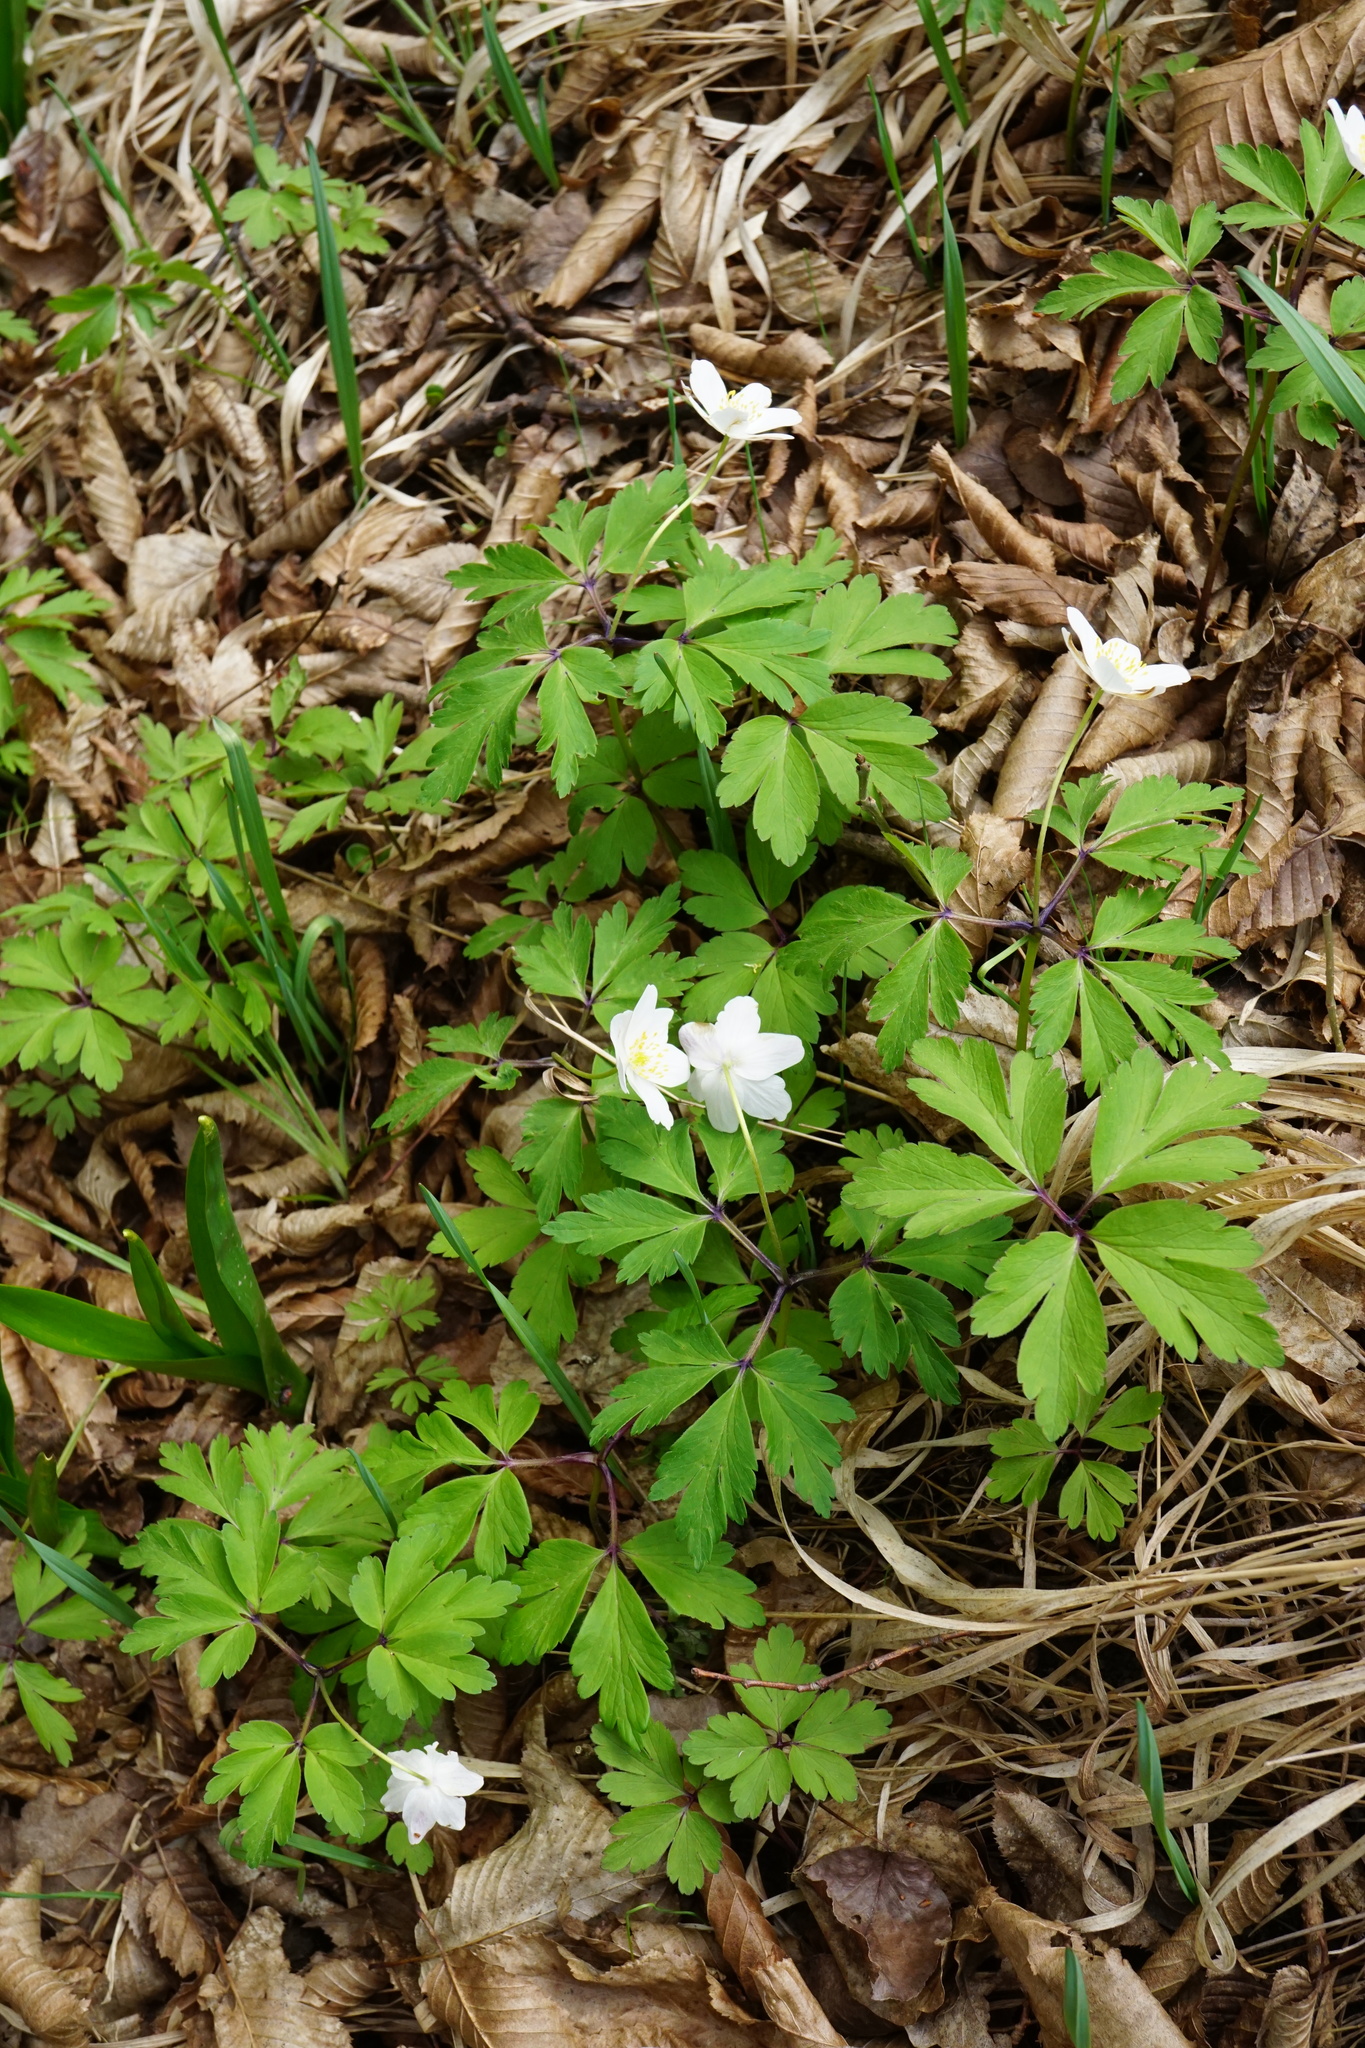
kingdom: Plantae
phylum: Tracheophyta
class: Magnoliopsida
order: Ranunculales
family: Ranunculaceae
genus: Anemone
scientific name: Anemone nemorosa
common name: Wood anemone
